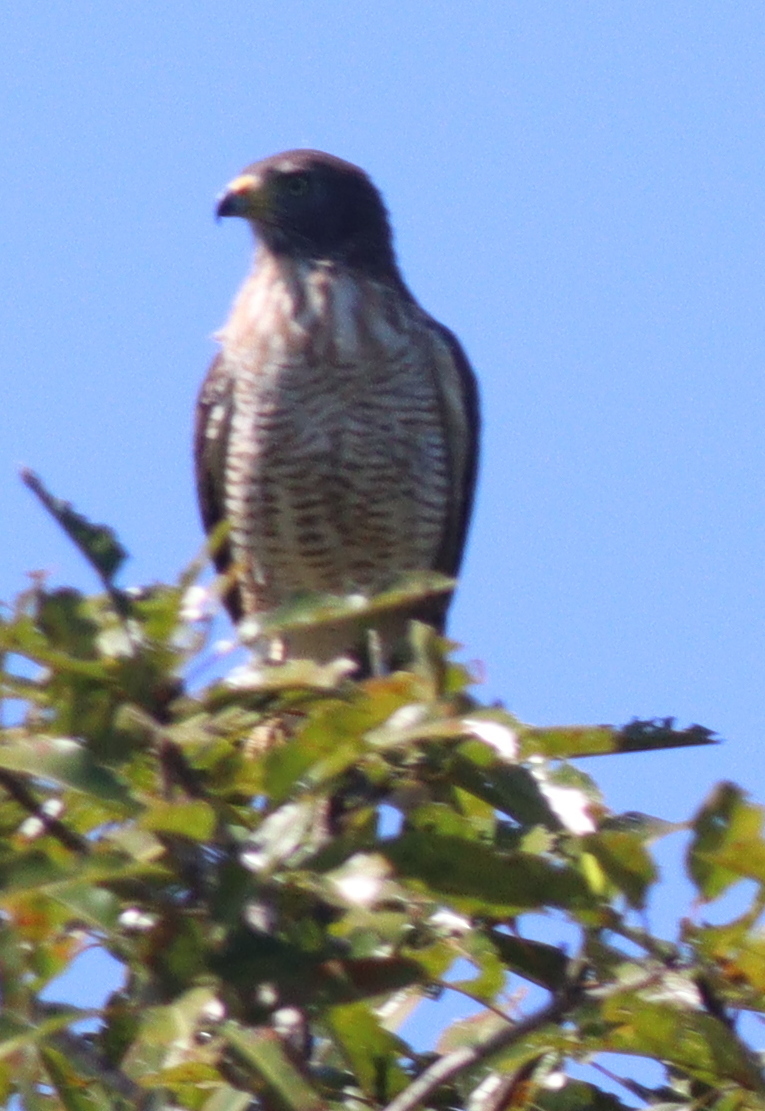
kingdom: Animalia
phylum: Chordata
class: Aves
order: Accipitriformes
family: Accipitridae
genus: Rupornis
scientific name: Rupornis magnirostris
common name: Roadside hawk
